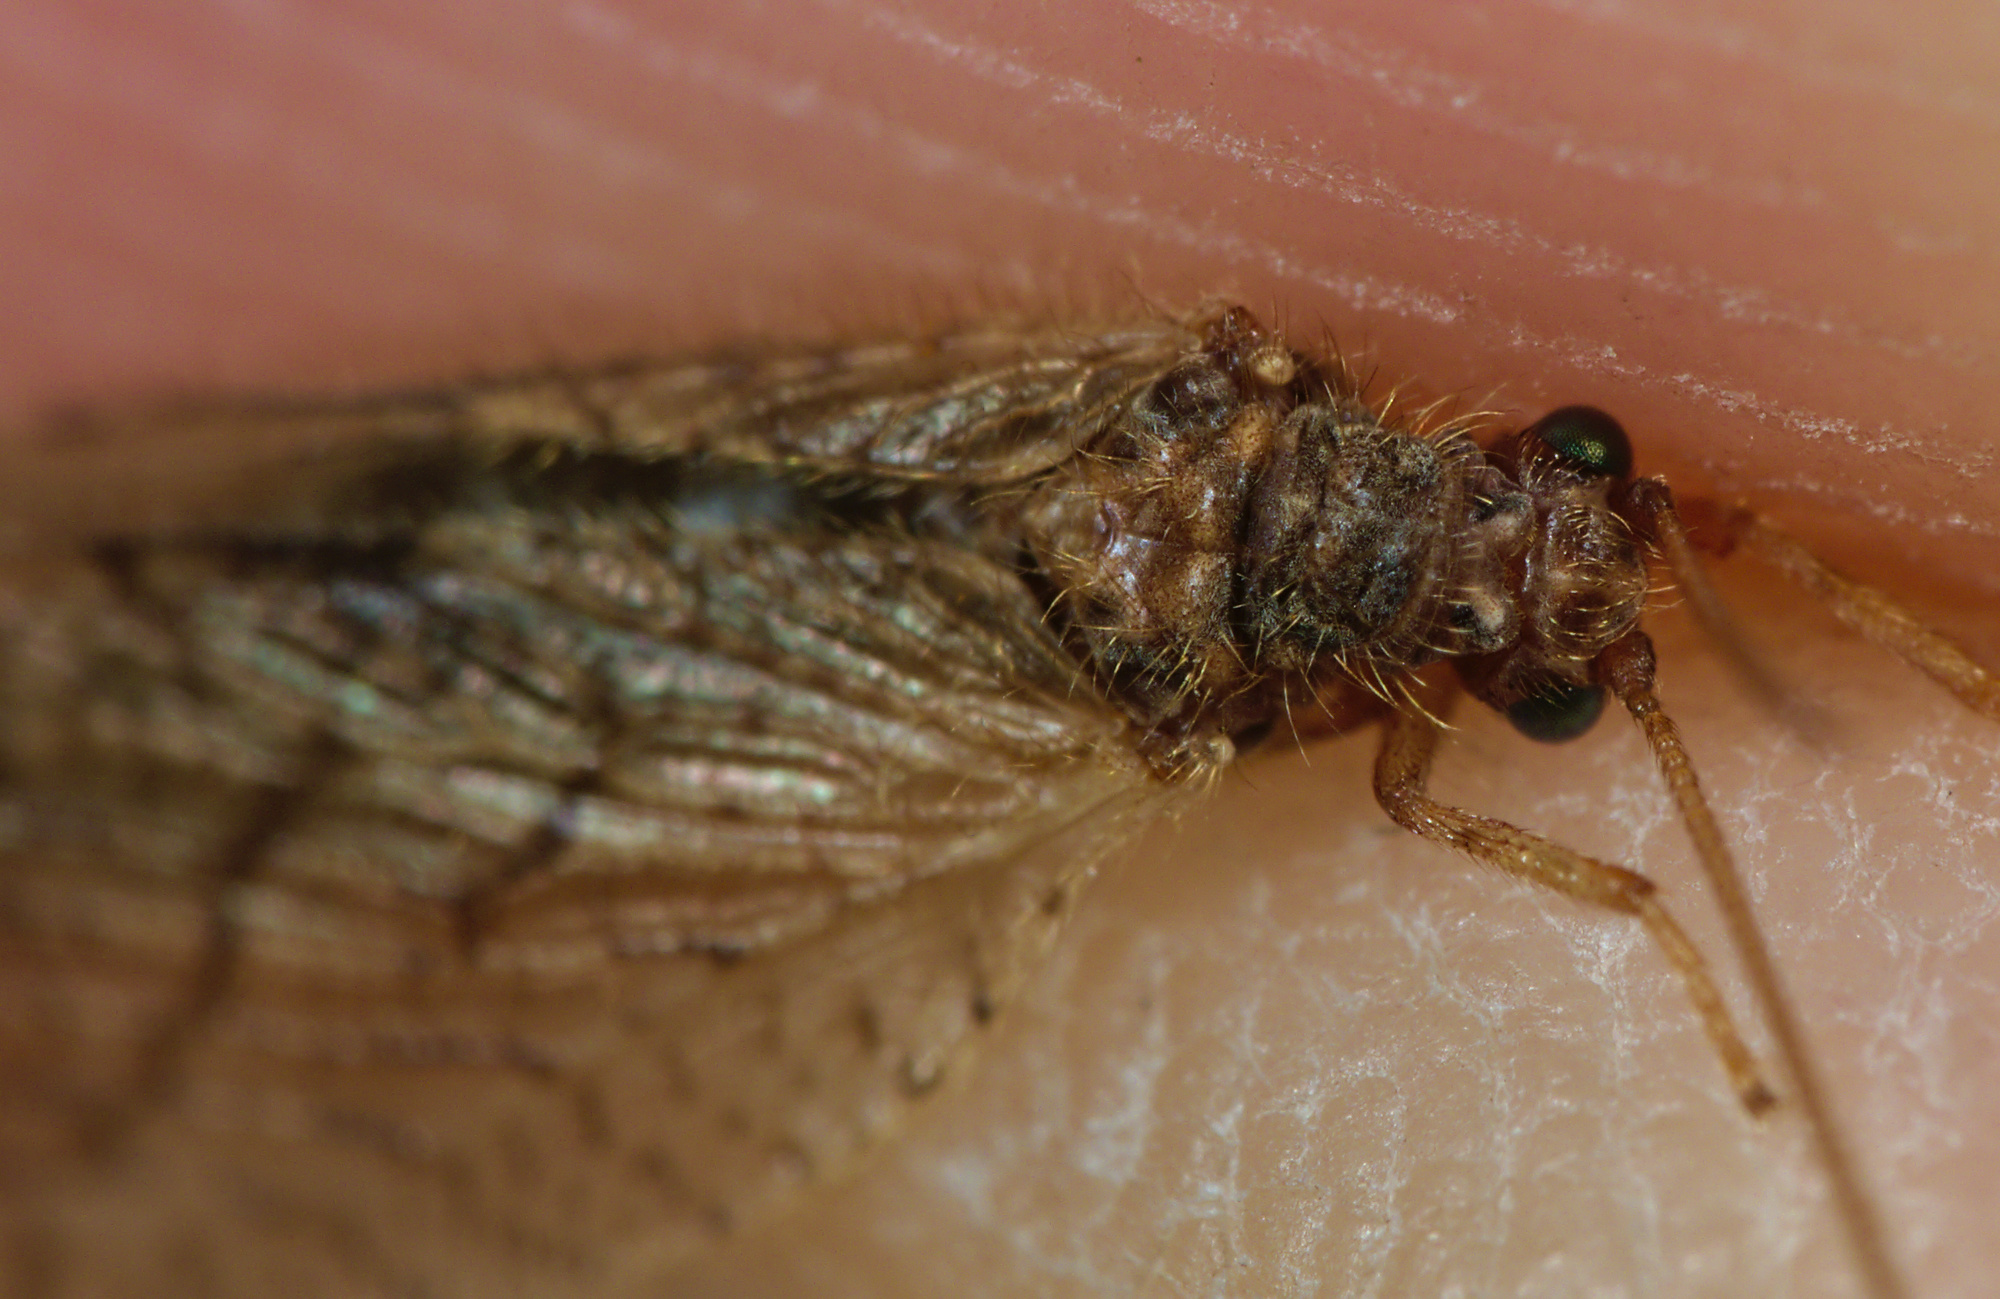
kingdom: Animalia
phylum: Arthropoda
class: Insecta
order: Neuroptera
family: Hemerobiidae
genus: Micromus
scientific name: Micromus angulatus
